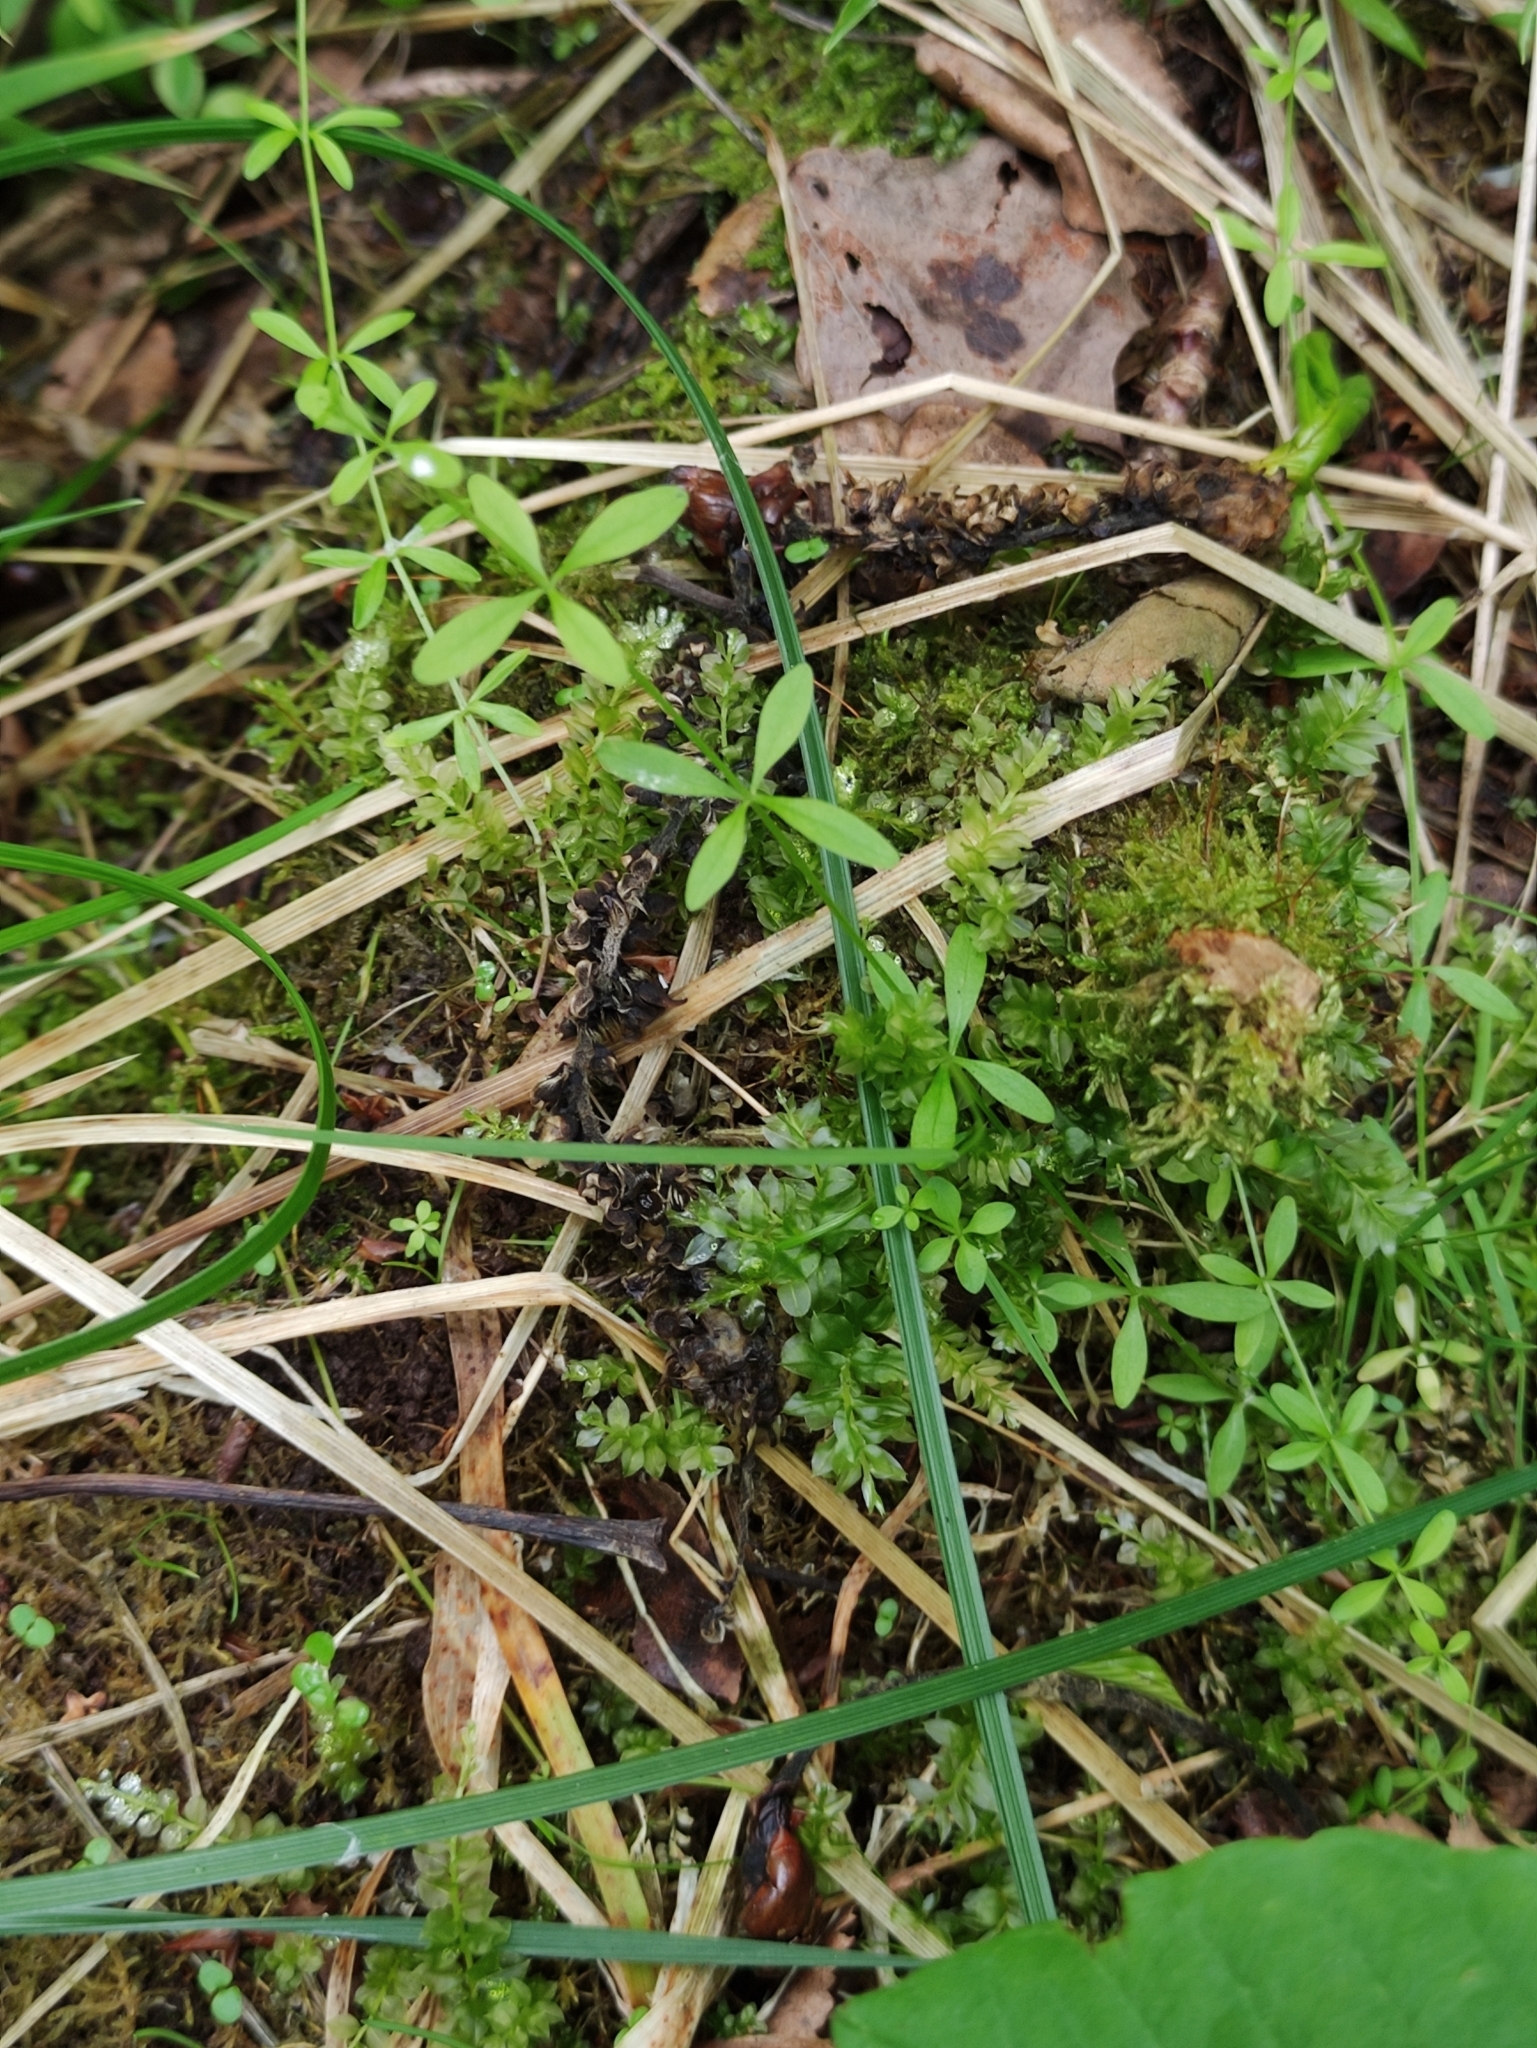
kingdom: Plantae
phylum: Tracheophyta
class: Magnoliopsida
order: Gentianales
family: Rubiaceae
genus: Galium
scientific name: Galium palustre
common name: Common marsh-bedstraw
